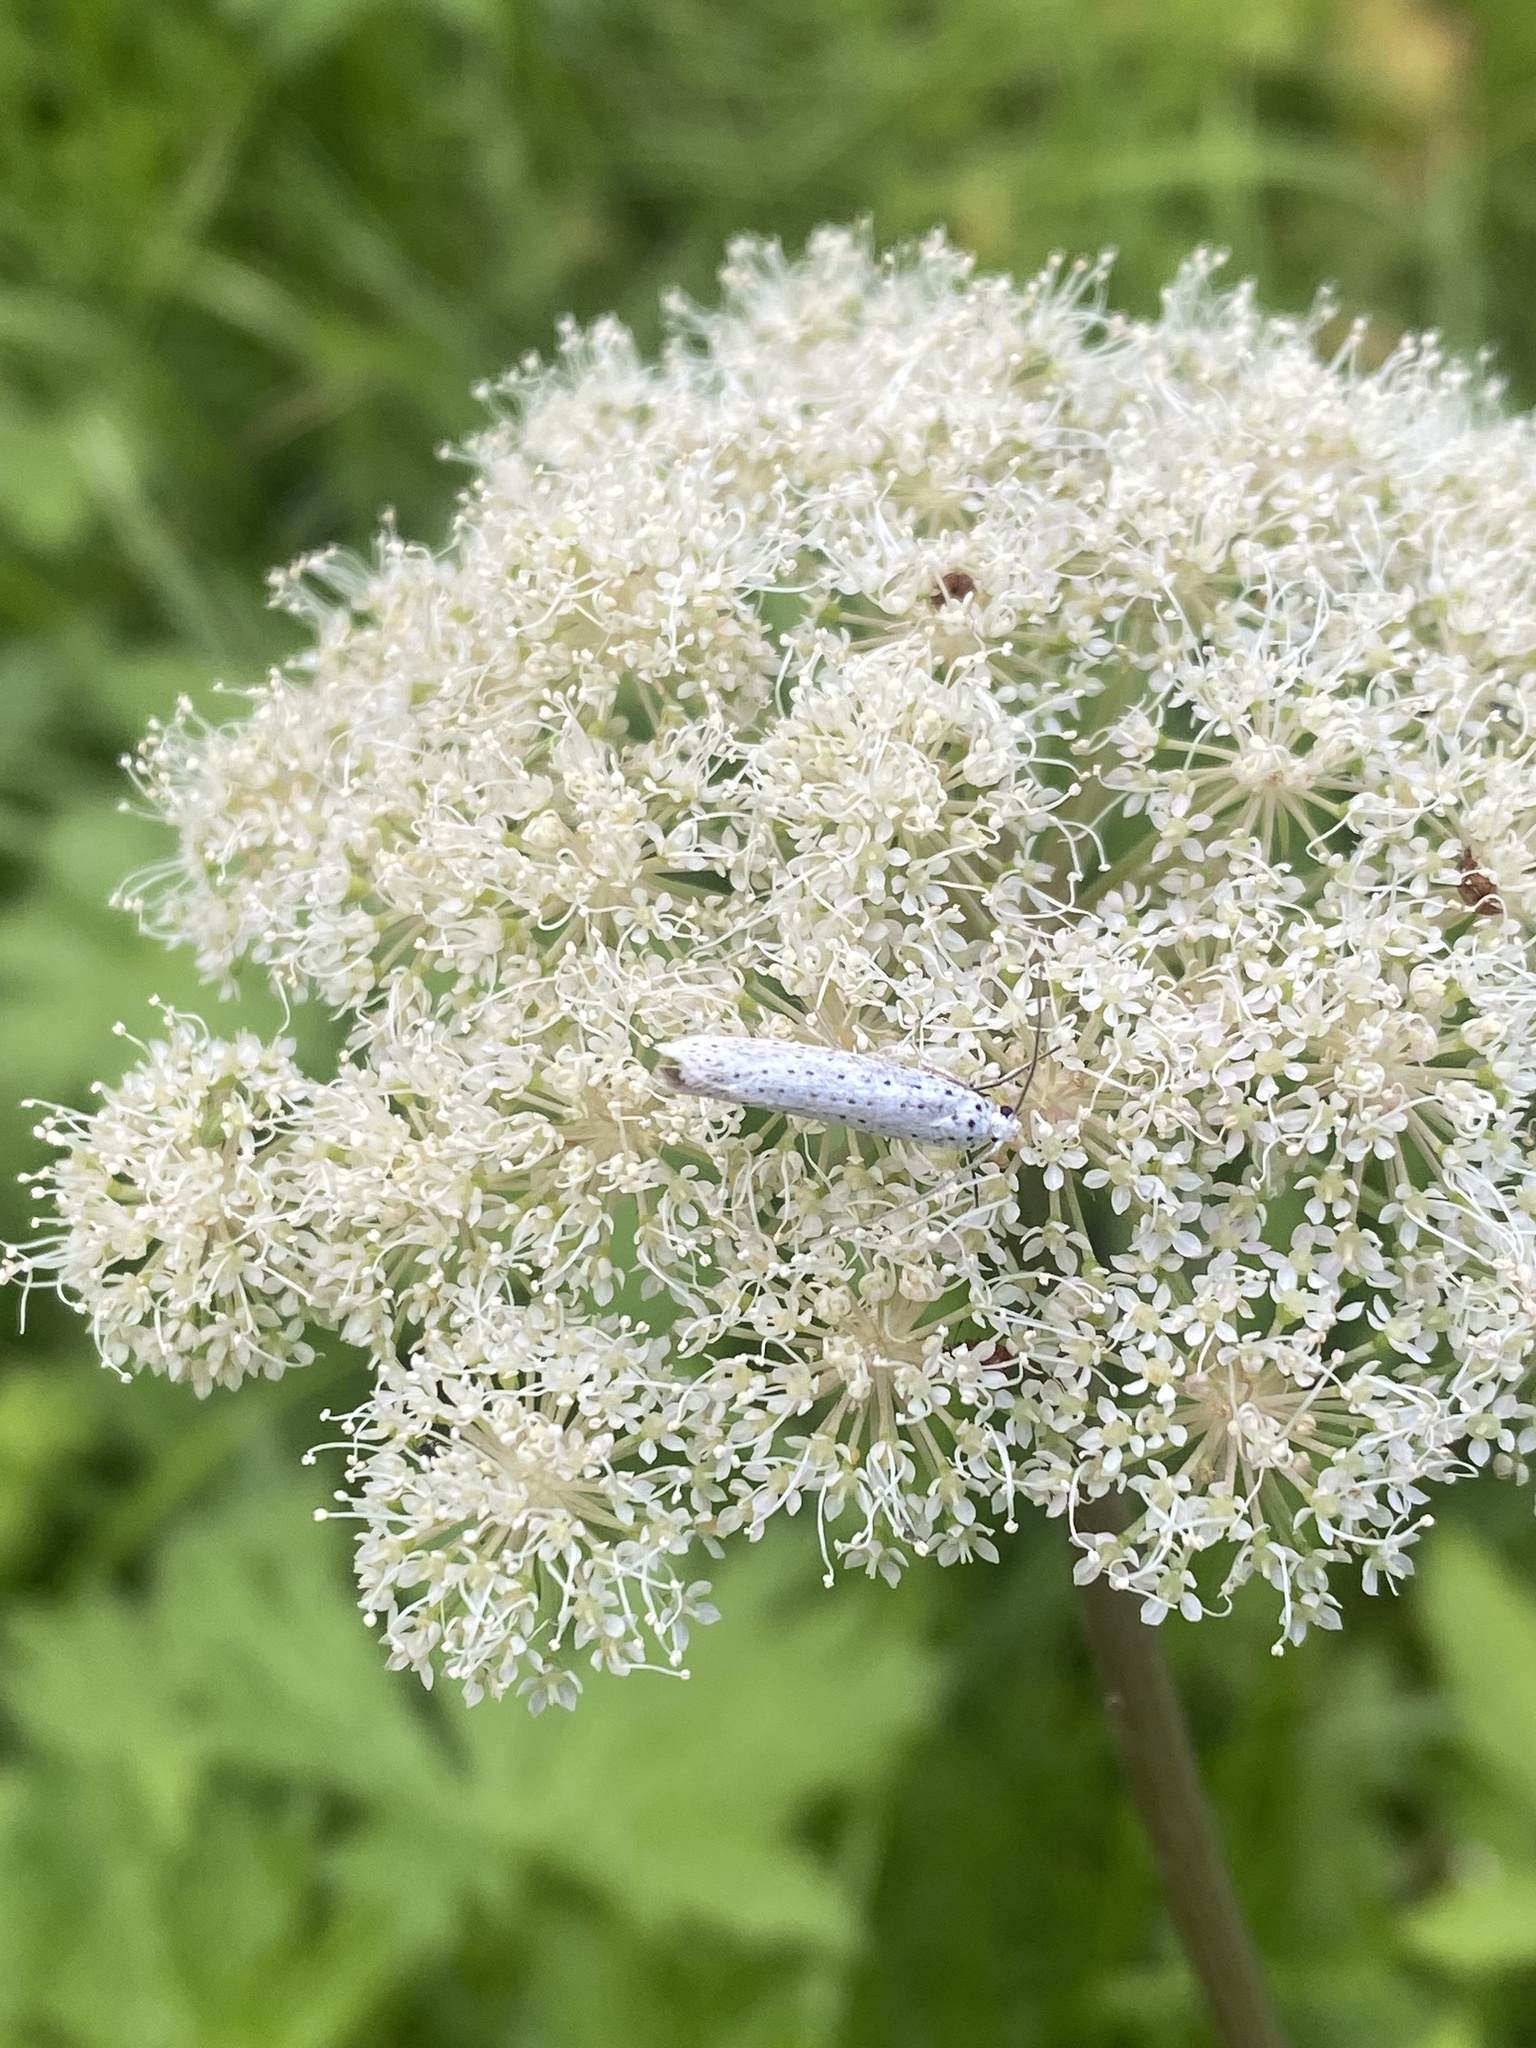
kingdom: Animalia
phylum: Arthropoda
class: Insecta
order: Lepidoptera
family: Yponomeutidae
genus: Yponomeuta
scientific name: Yponomeuta evonymella
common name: Bird-cherry ermine
